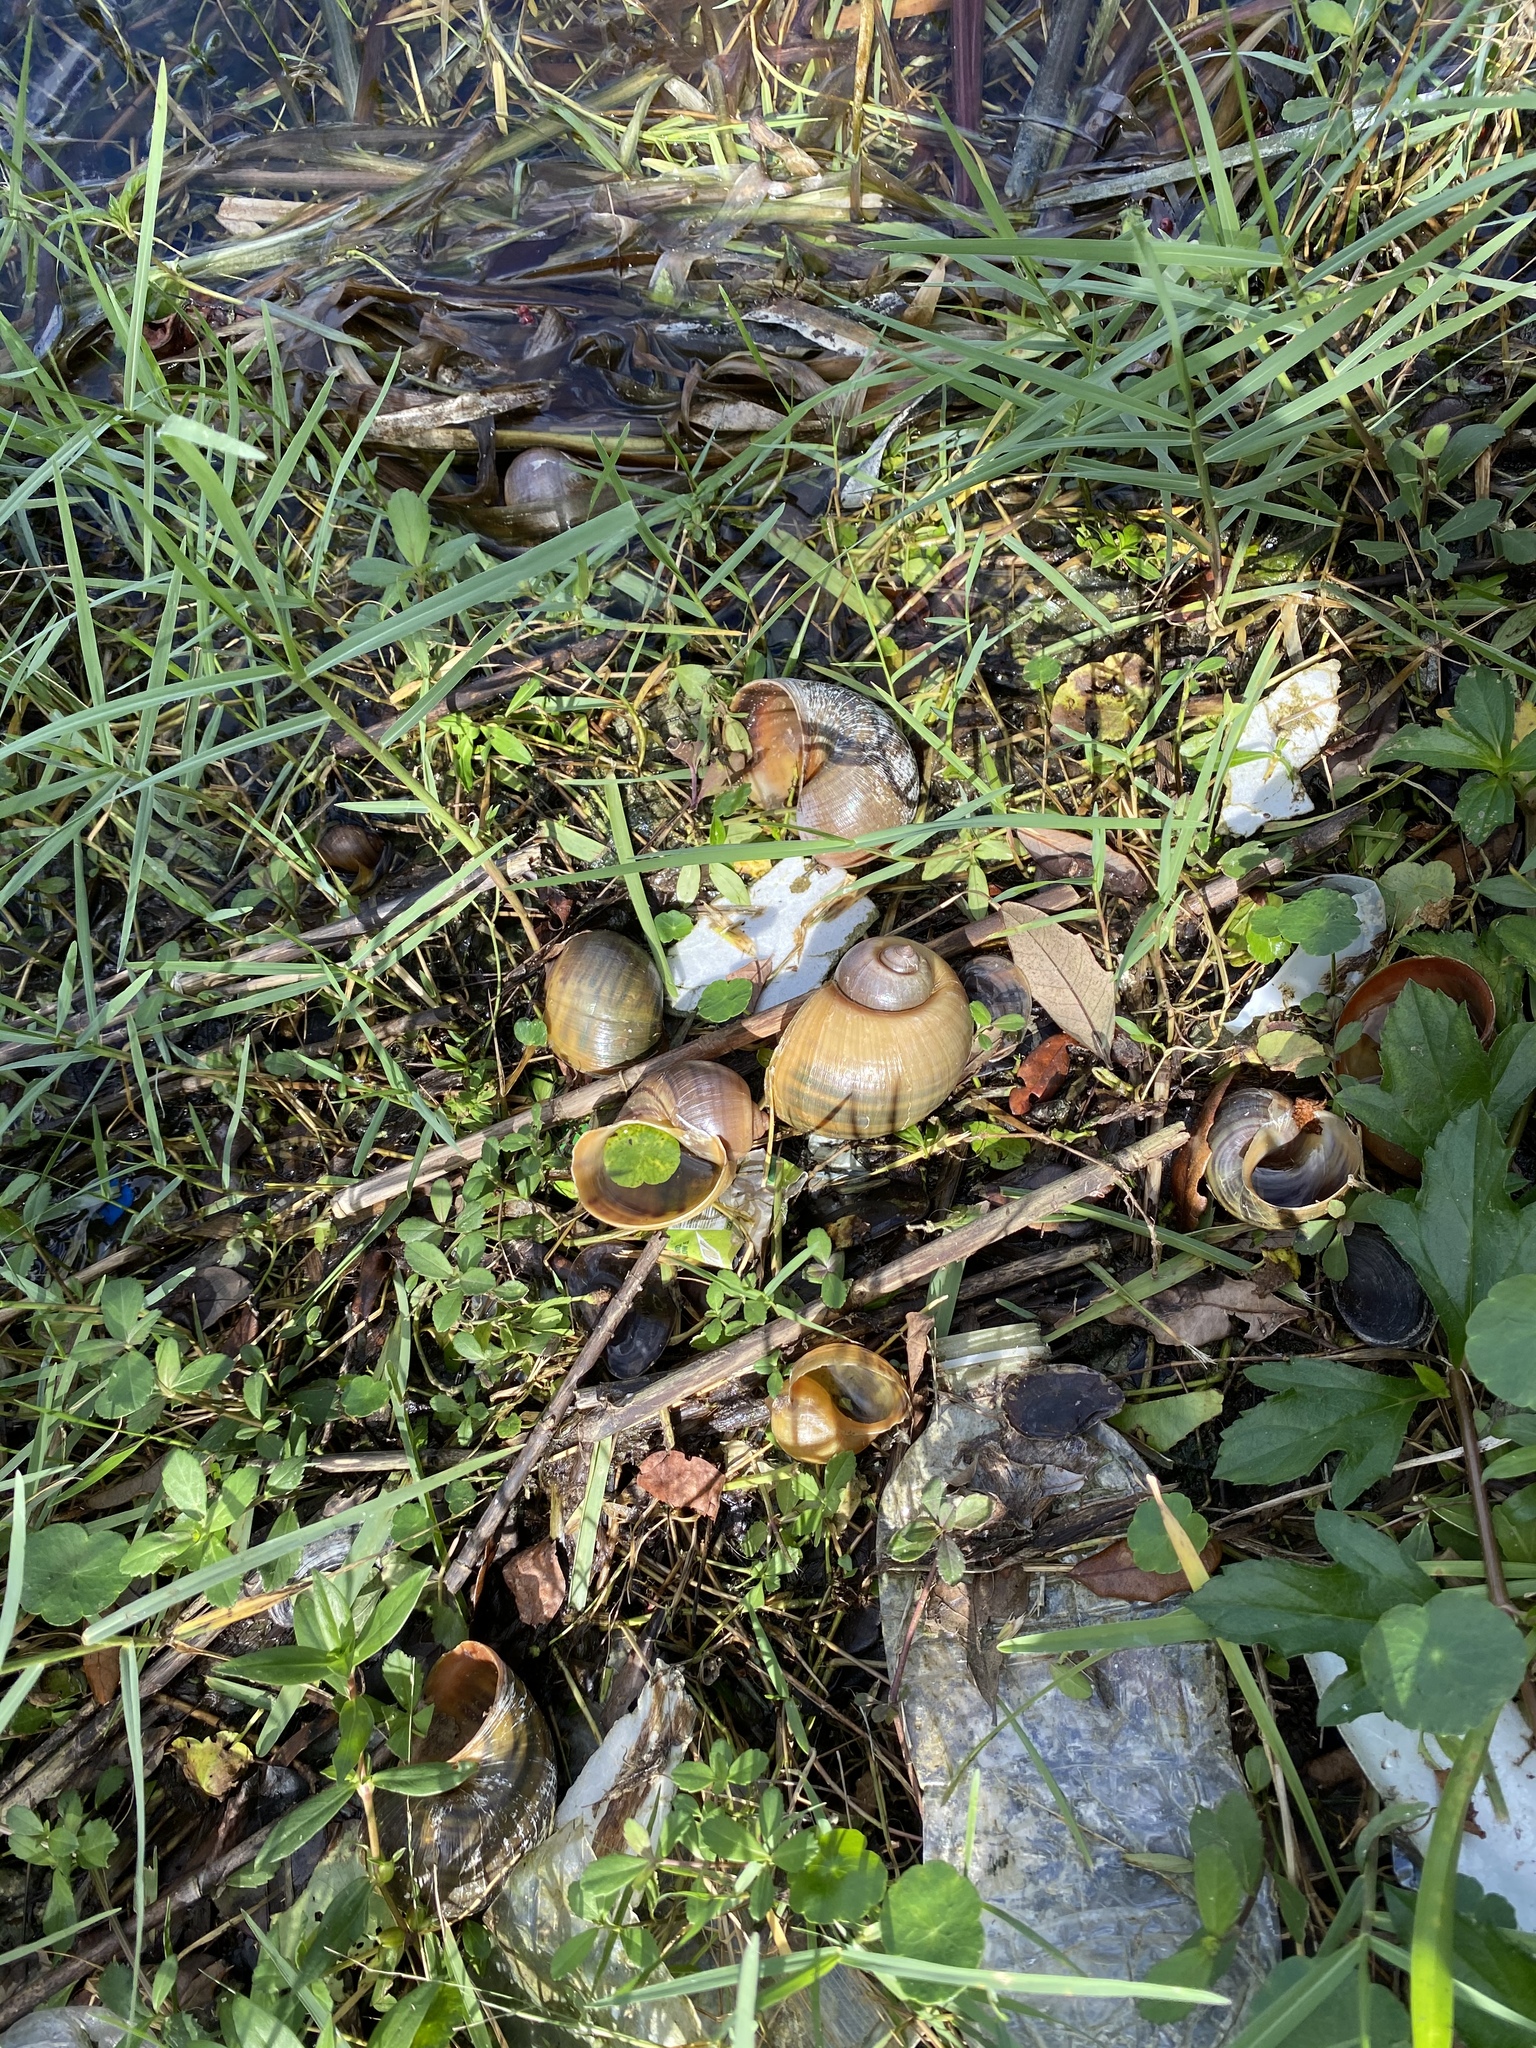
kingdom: Animalia
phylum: Mollusca
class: Gastropoda
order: Architaenioglossa
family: Ampullariidae
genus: Pomacea
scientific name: Pomacea maculata
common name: Giant applesnail
